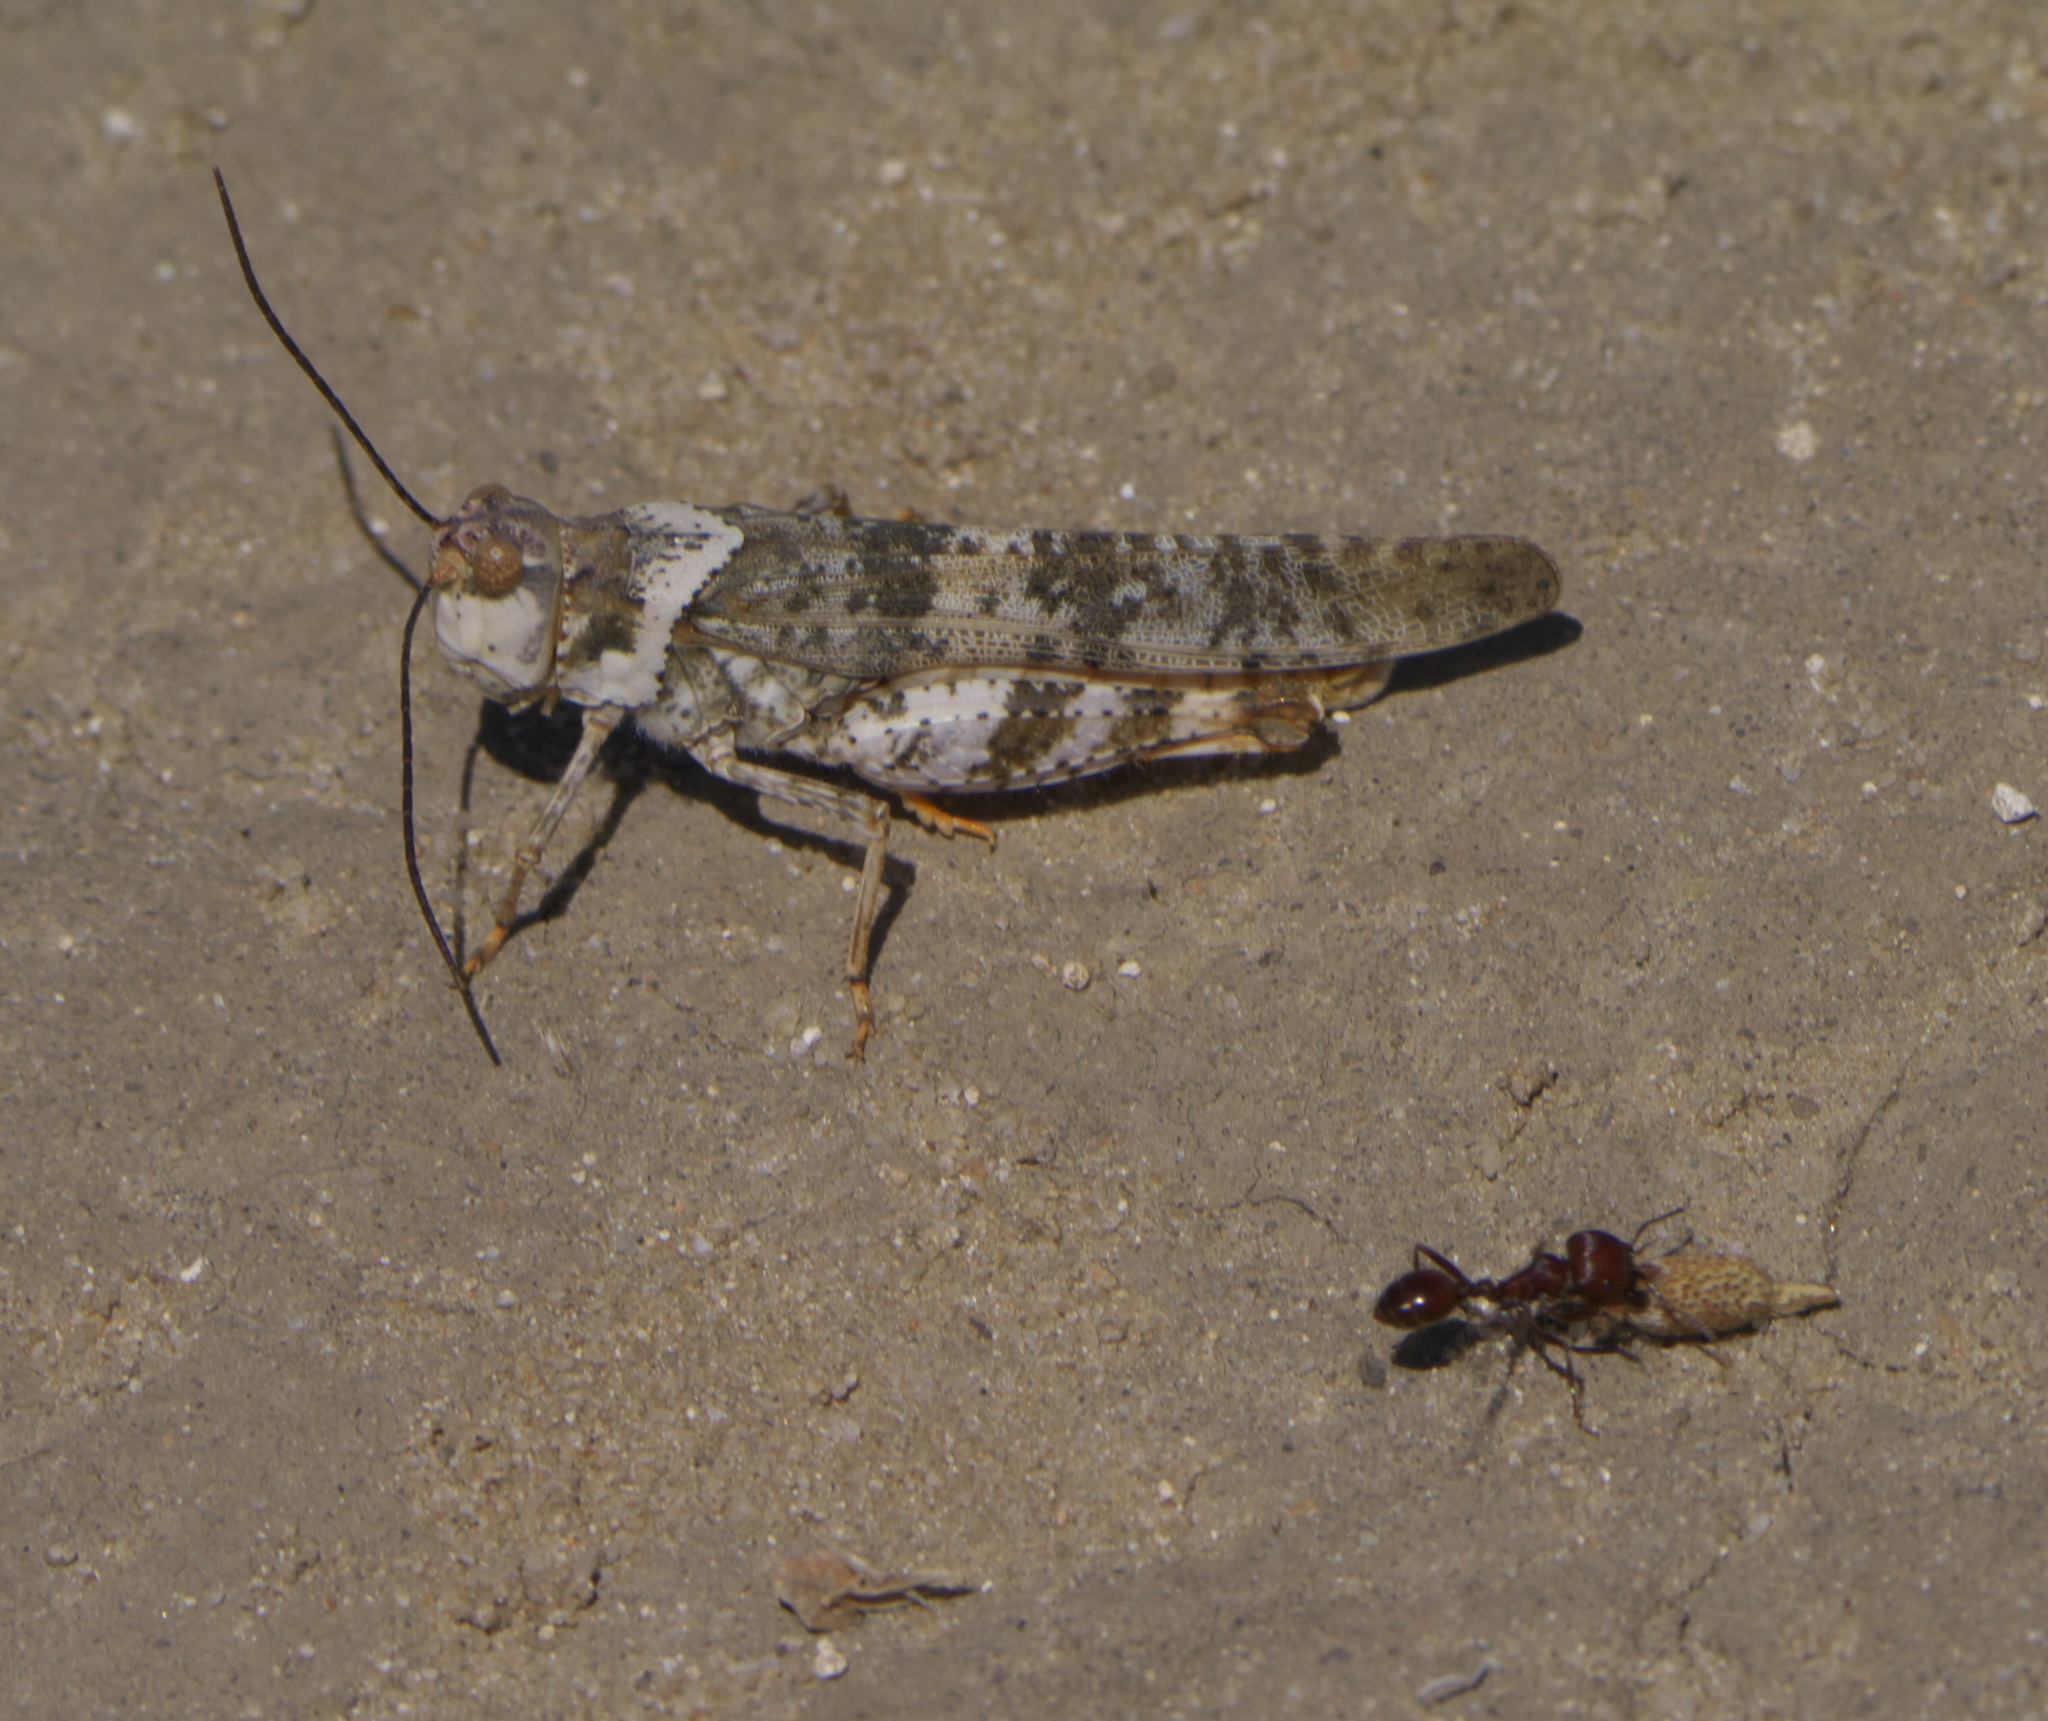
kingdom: Animalia
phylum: Arthropoda
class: Insecta
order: Orthoptera
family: Acrididae
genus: Spharagemon
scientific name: Spharagemon equale
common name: Orange-legged grasshopper
